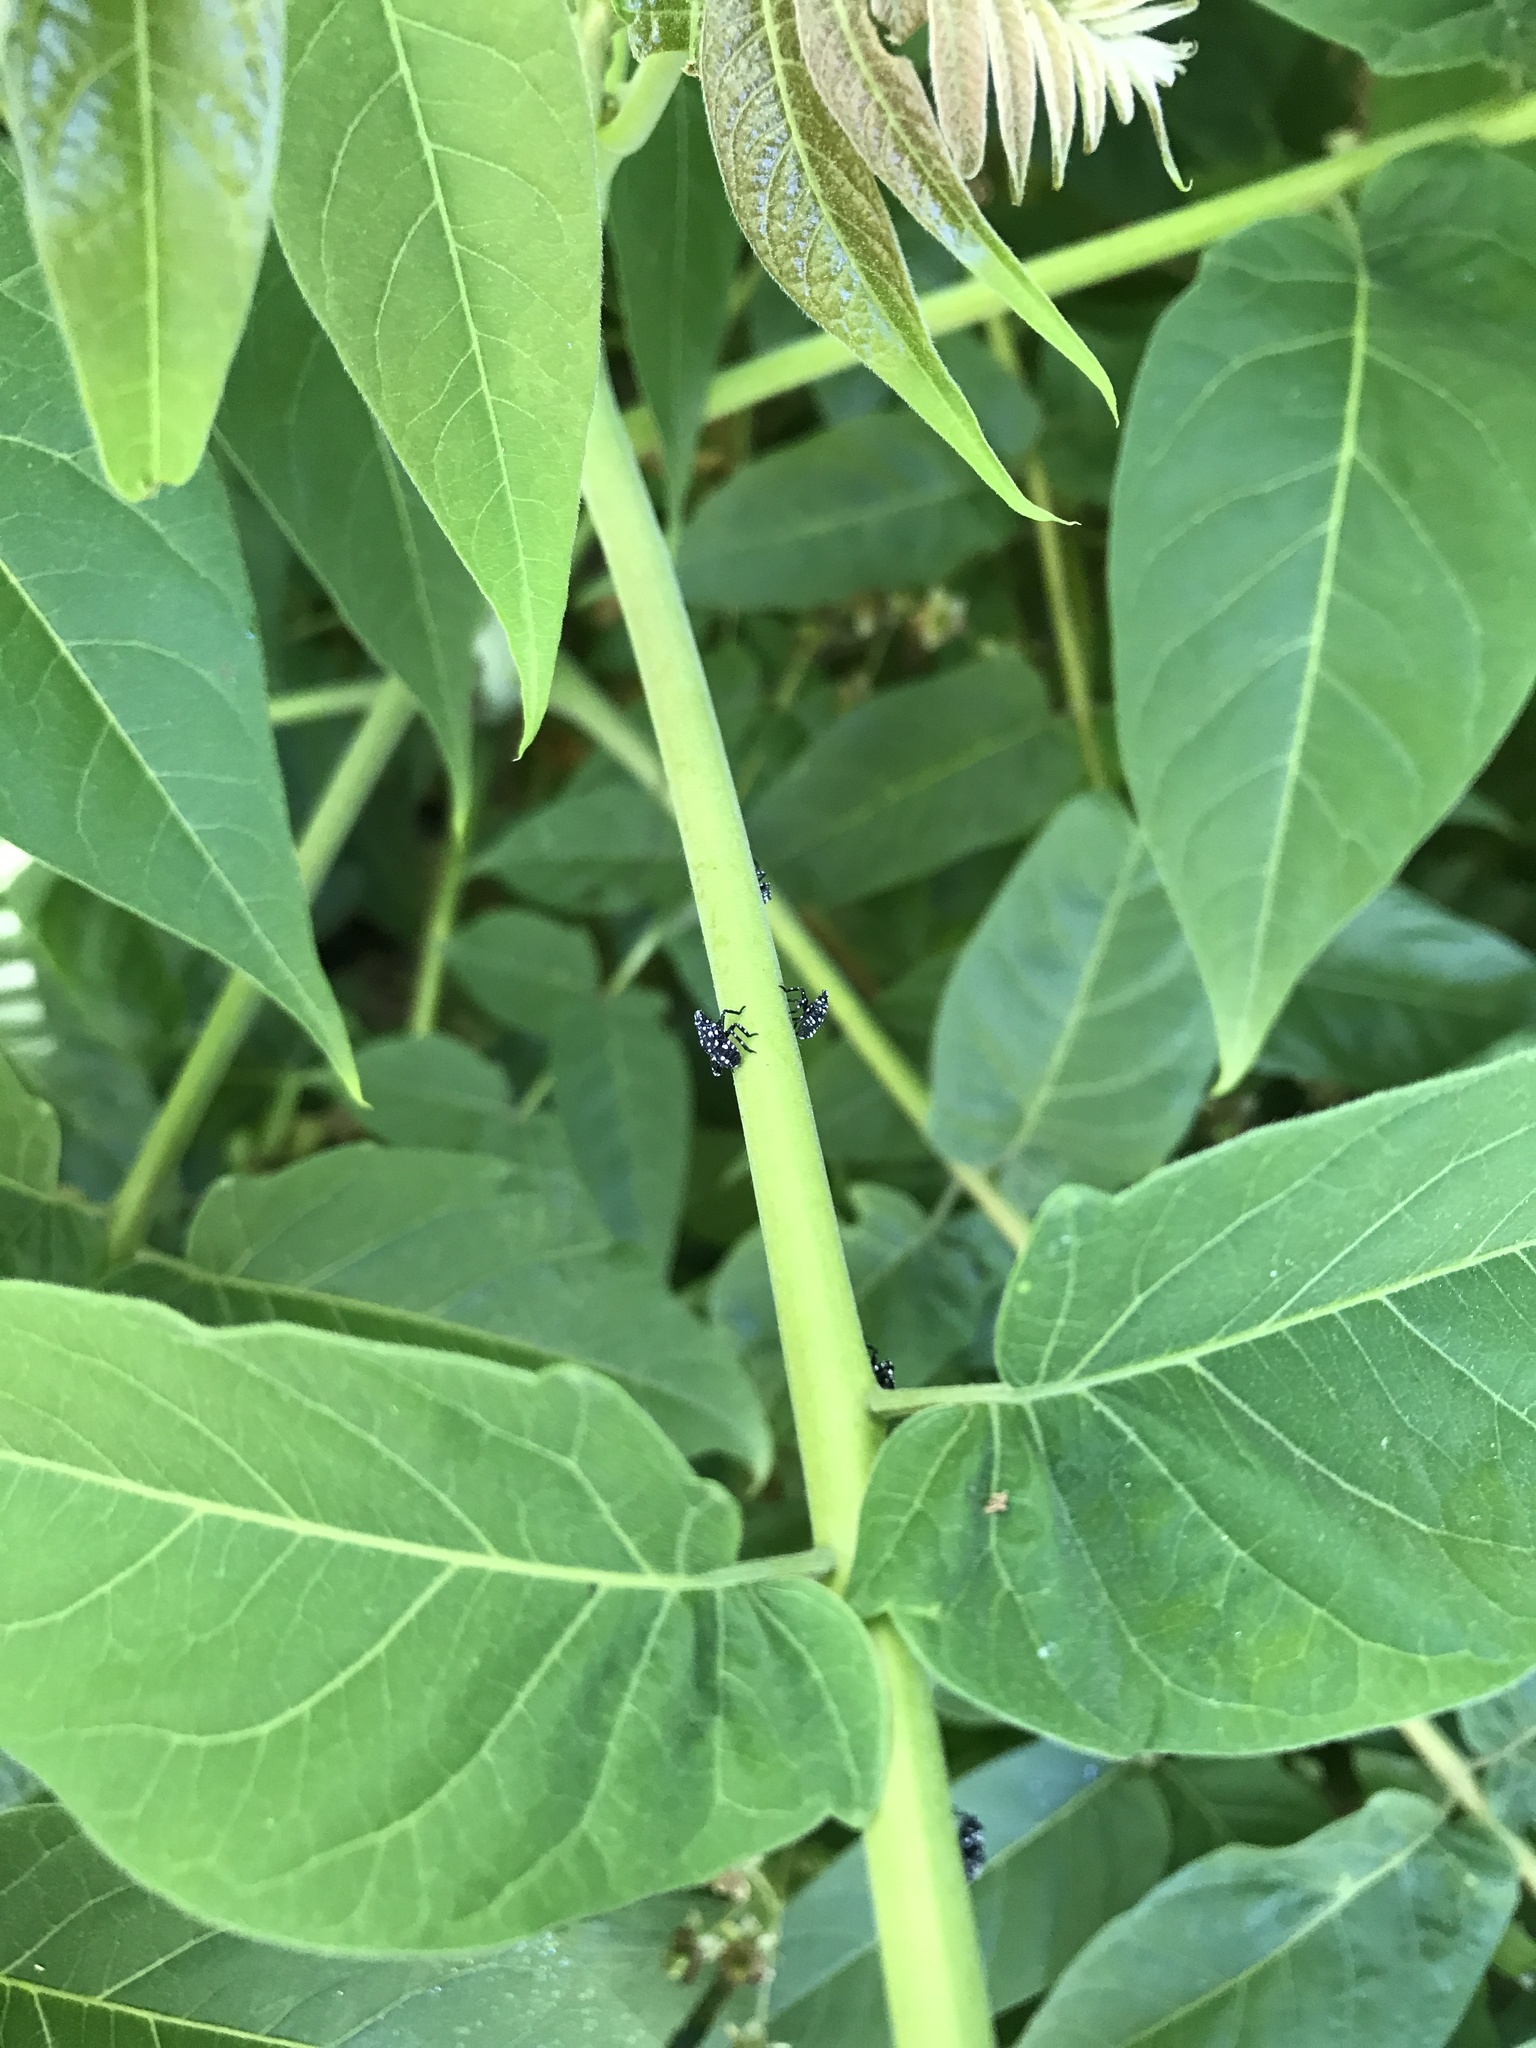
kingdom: Animalia
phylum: Arthropoda
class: Insecta
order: Hemiptera
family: Fulgoridae
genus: Lycorma
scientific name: Lycorma delicatula
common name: Spotted lanternfly
